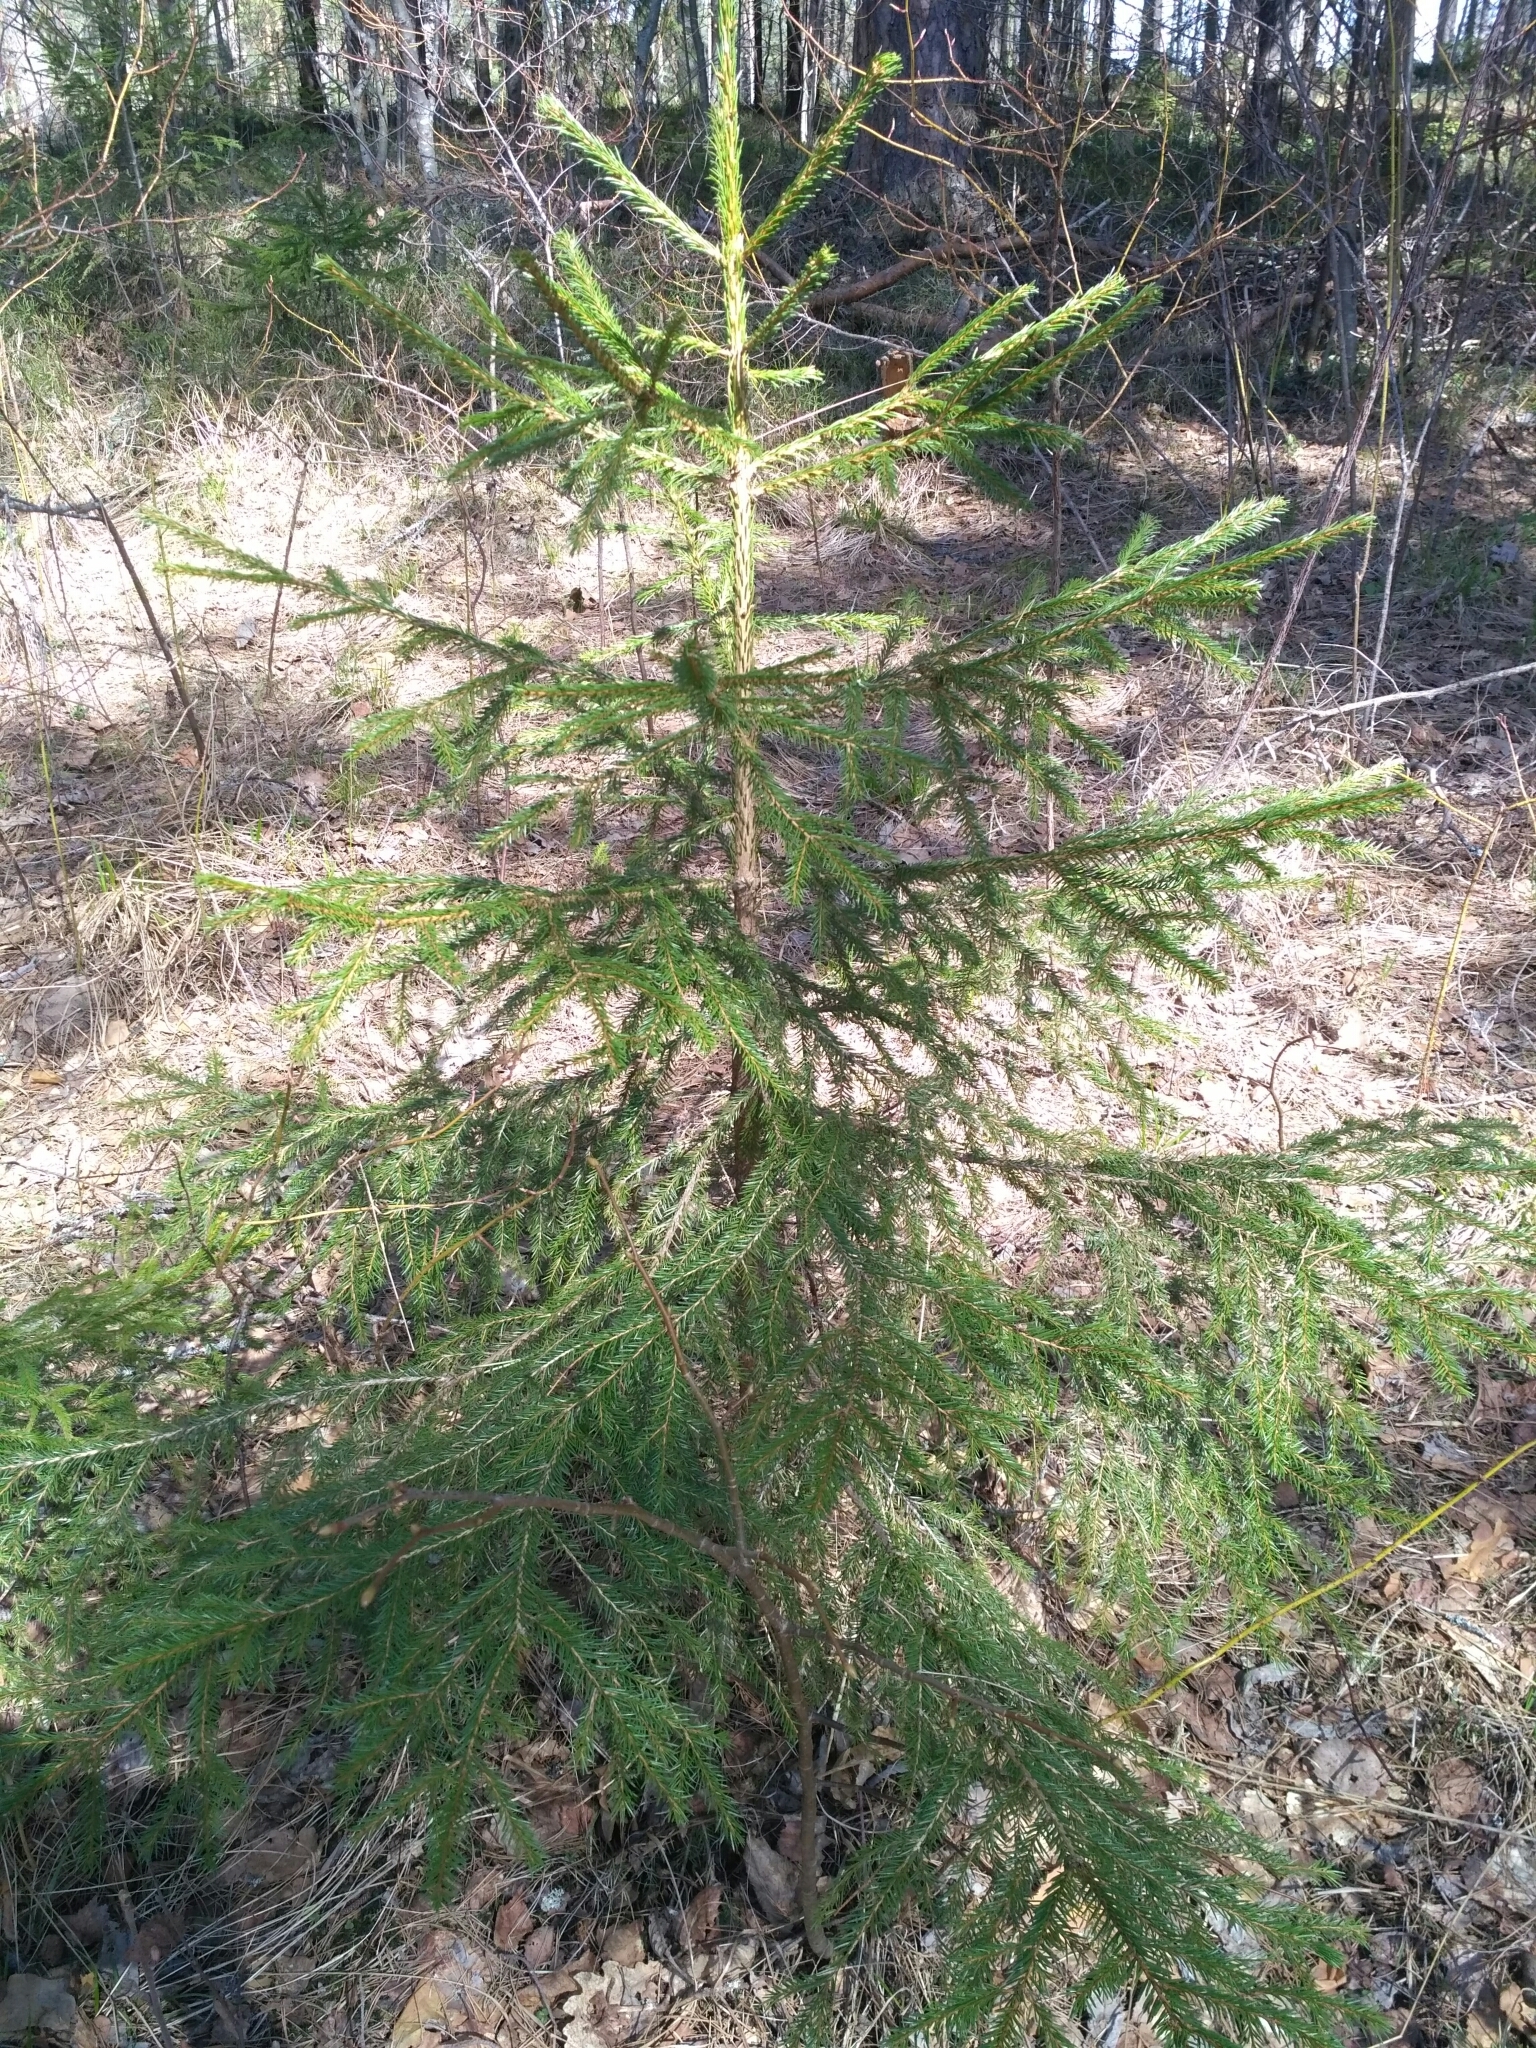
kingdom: Plantae
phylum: Tracheophyta
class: Pinopsida
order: Pinales
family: Pinaceae
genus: Picea
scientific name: Picea abies
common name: Norway spruce
